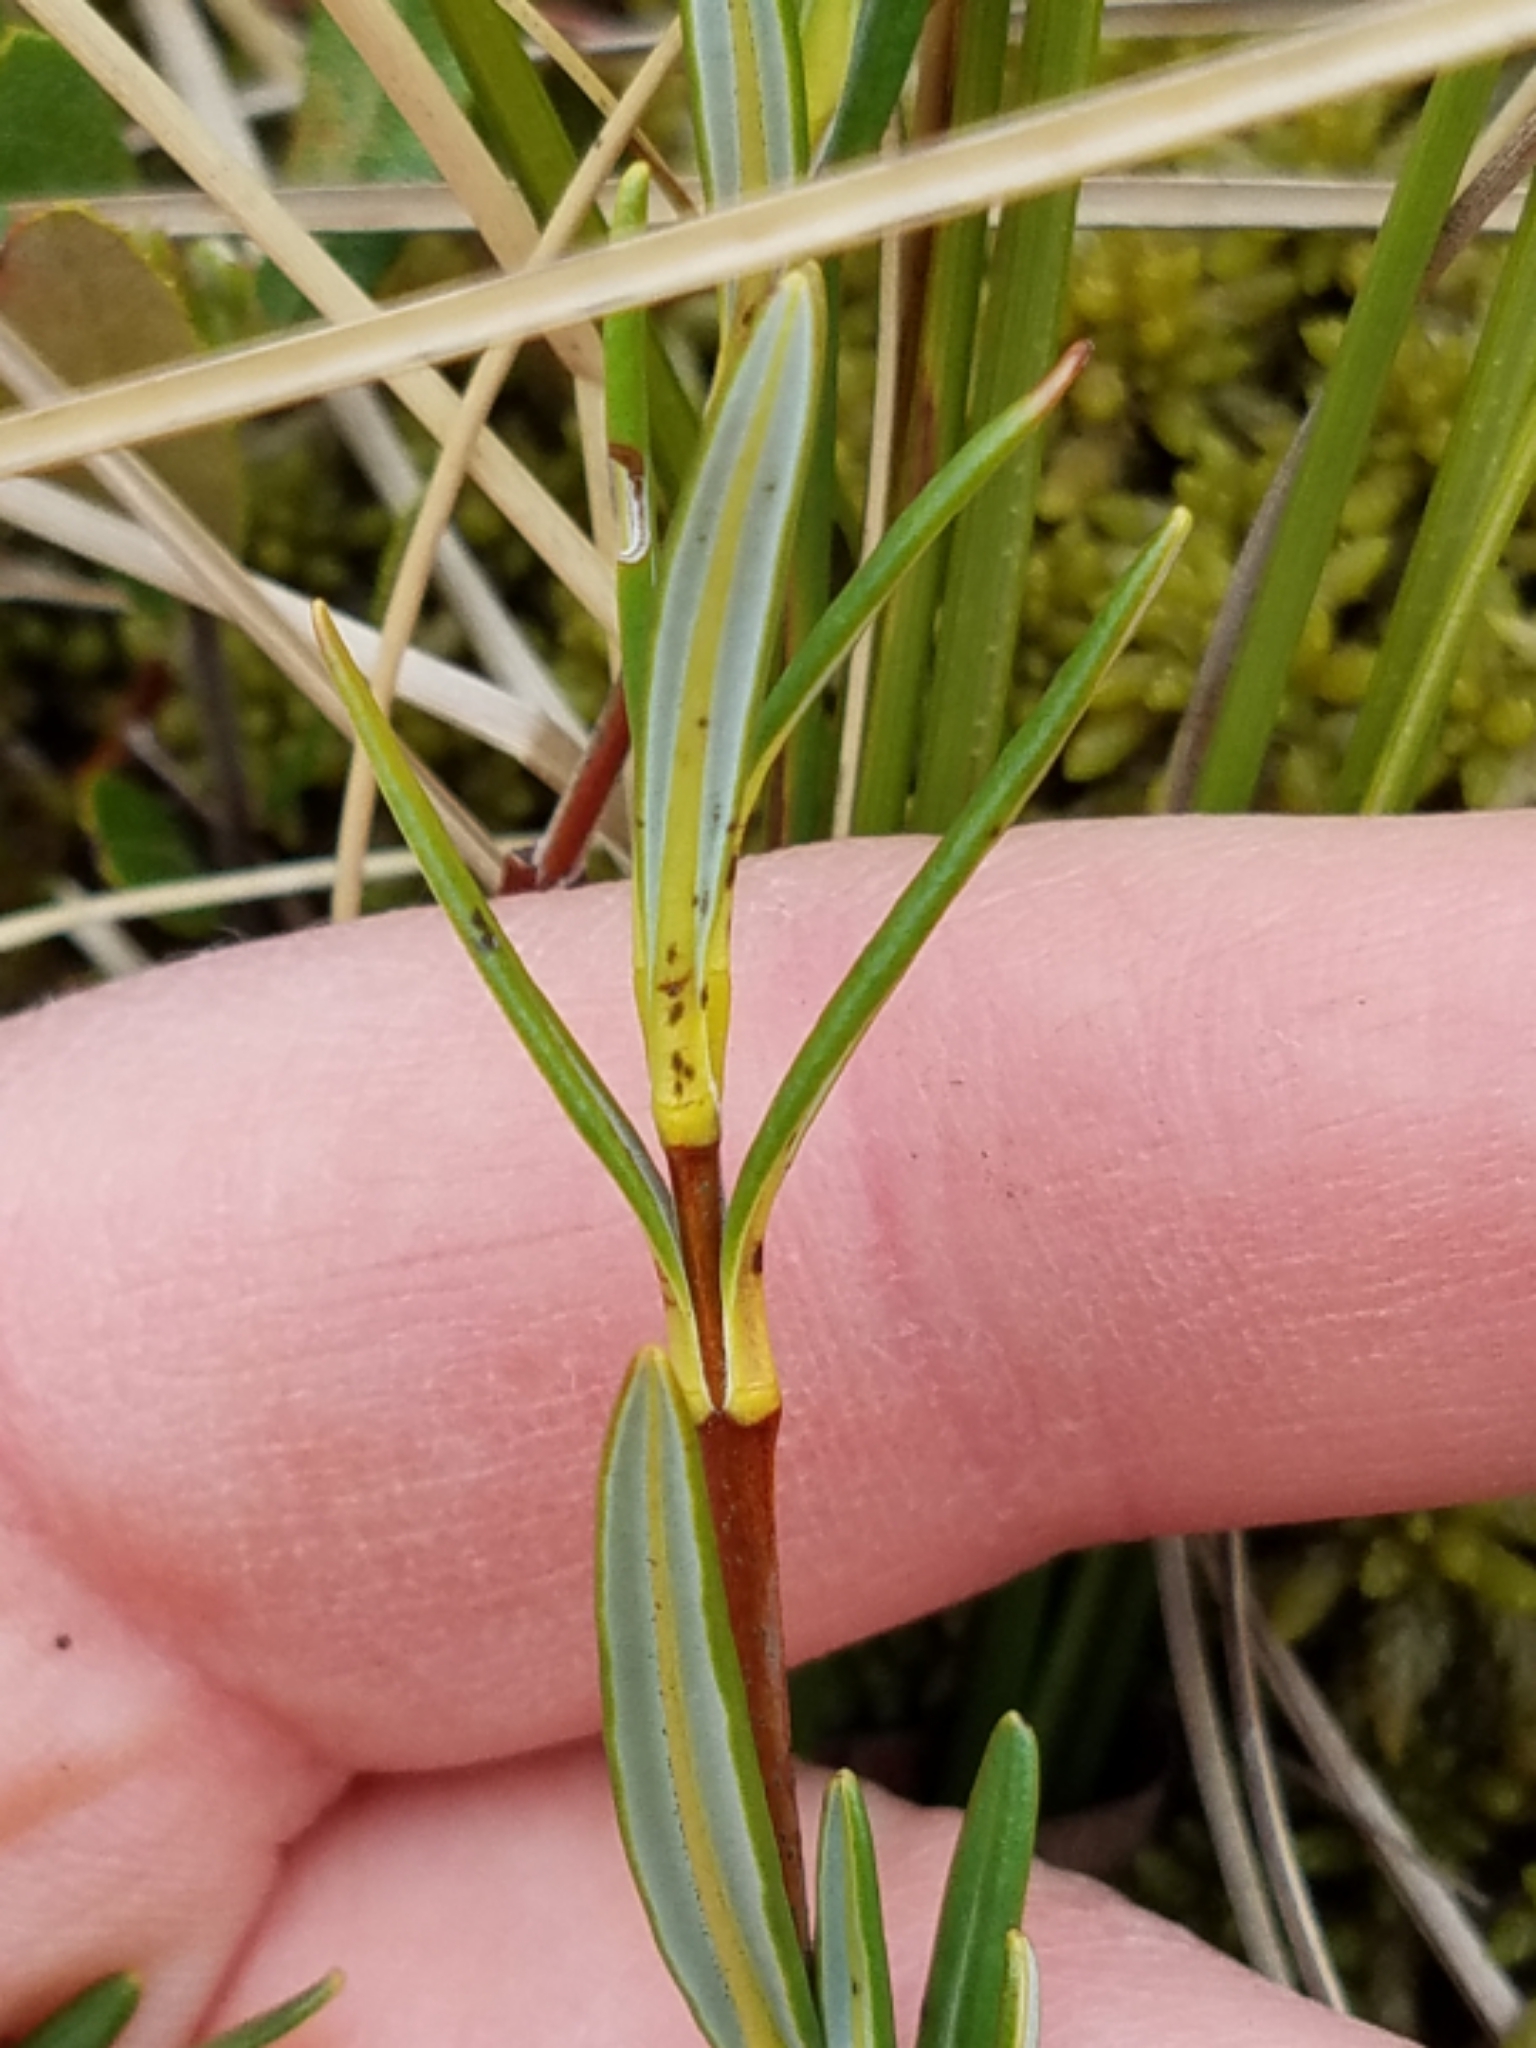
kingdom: Plantae
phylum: Tracheophyta
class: Magnoliopsida
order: Ericales
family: Ericaceae
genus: Kalmia
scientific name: Kalmia polifolia
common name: Bog-laurel
